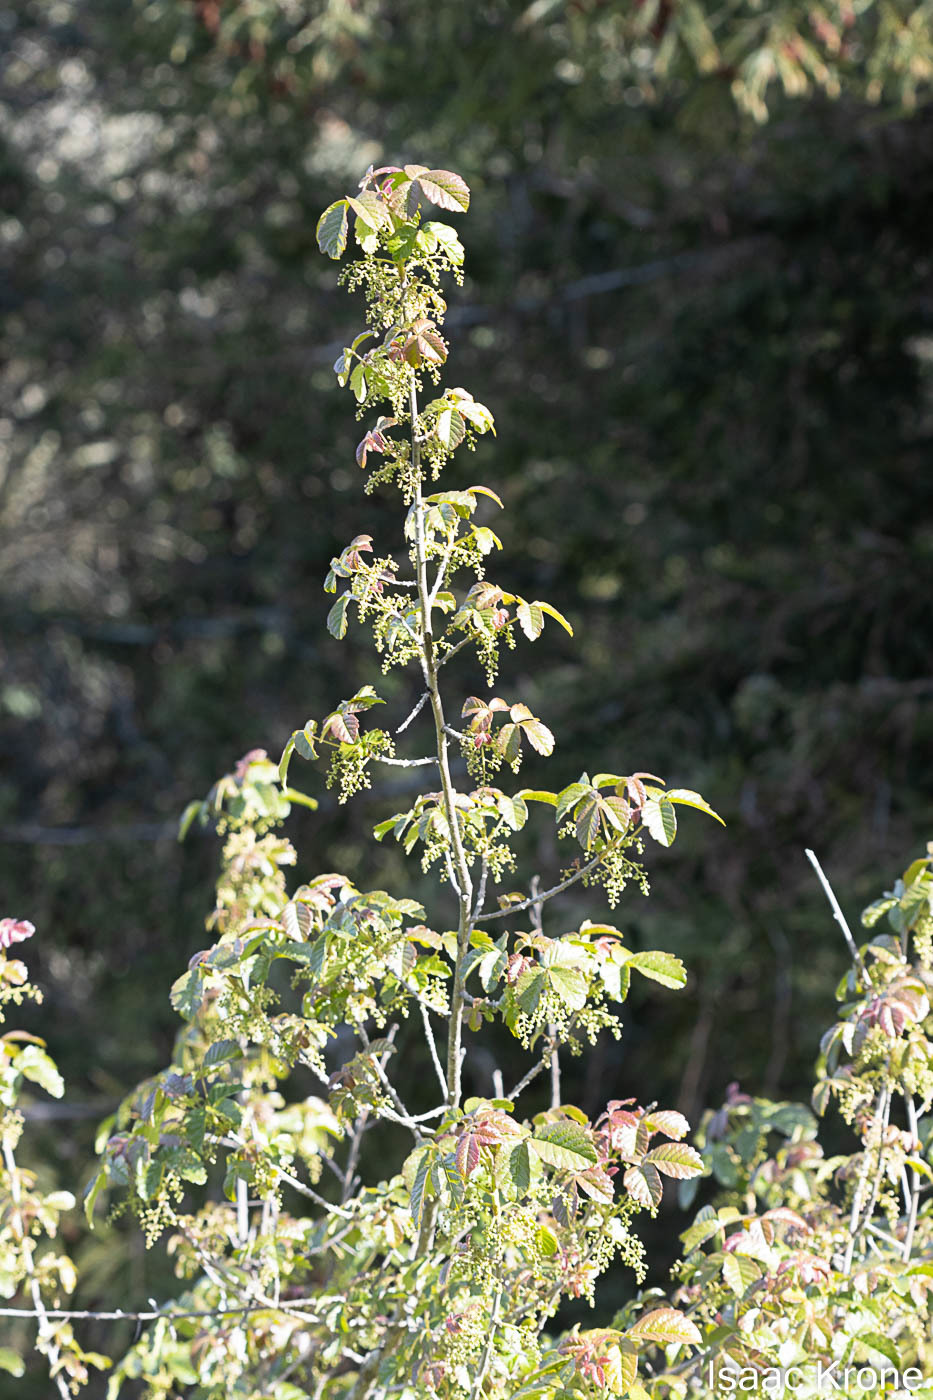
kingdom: Plantae
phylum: Tracheophyta
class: Magnoliopsida
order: Sapindales
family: Anacardiaceae
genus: Toxicodendron
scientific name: Toxicodendron diversilobum
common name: Pacific poison-oak
